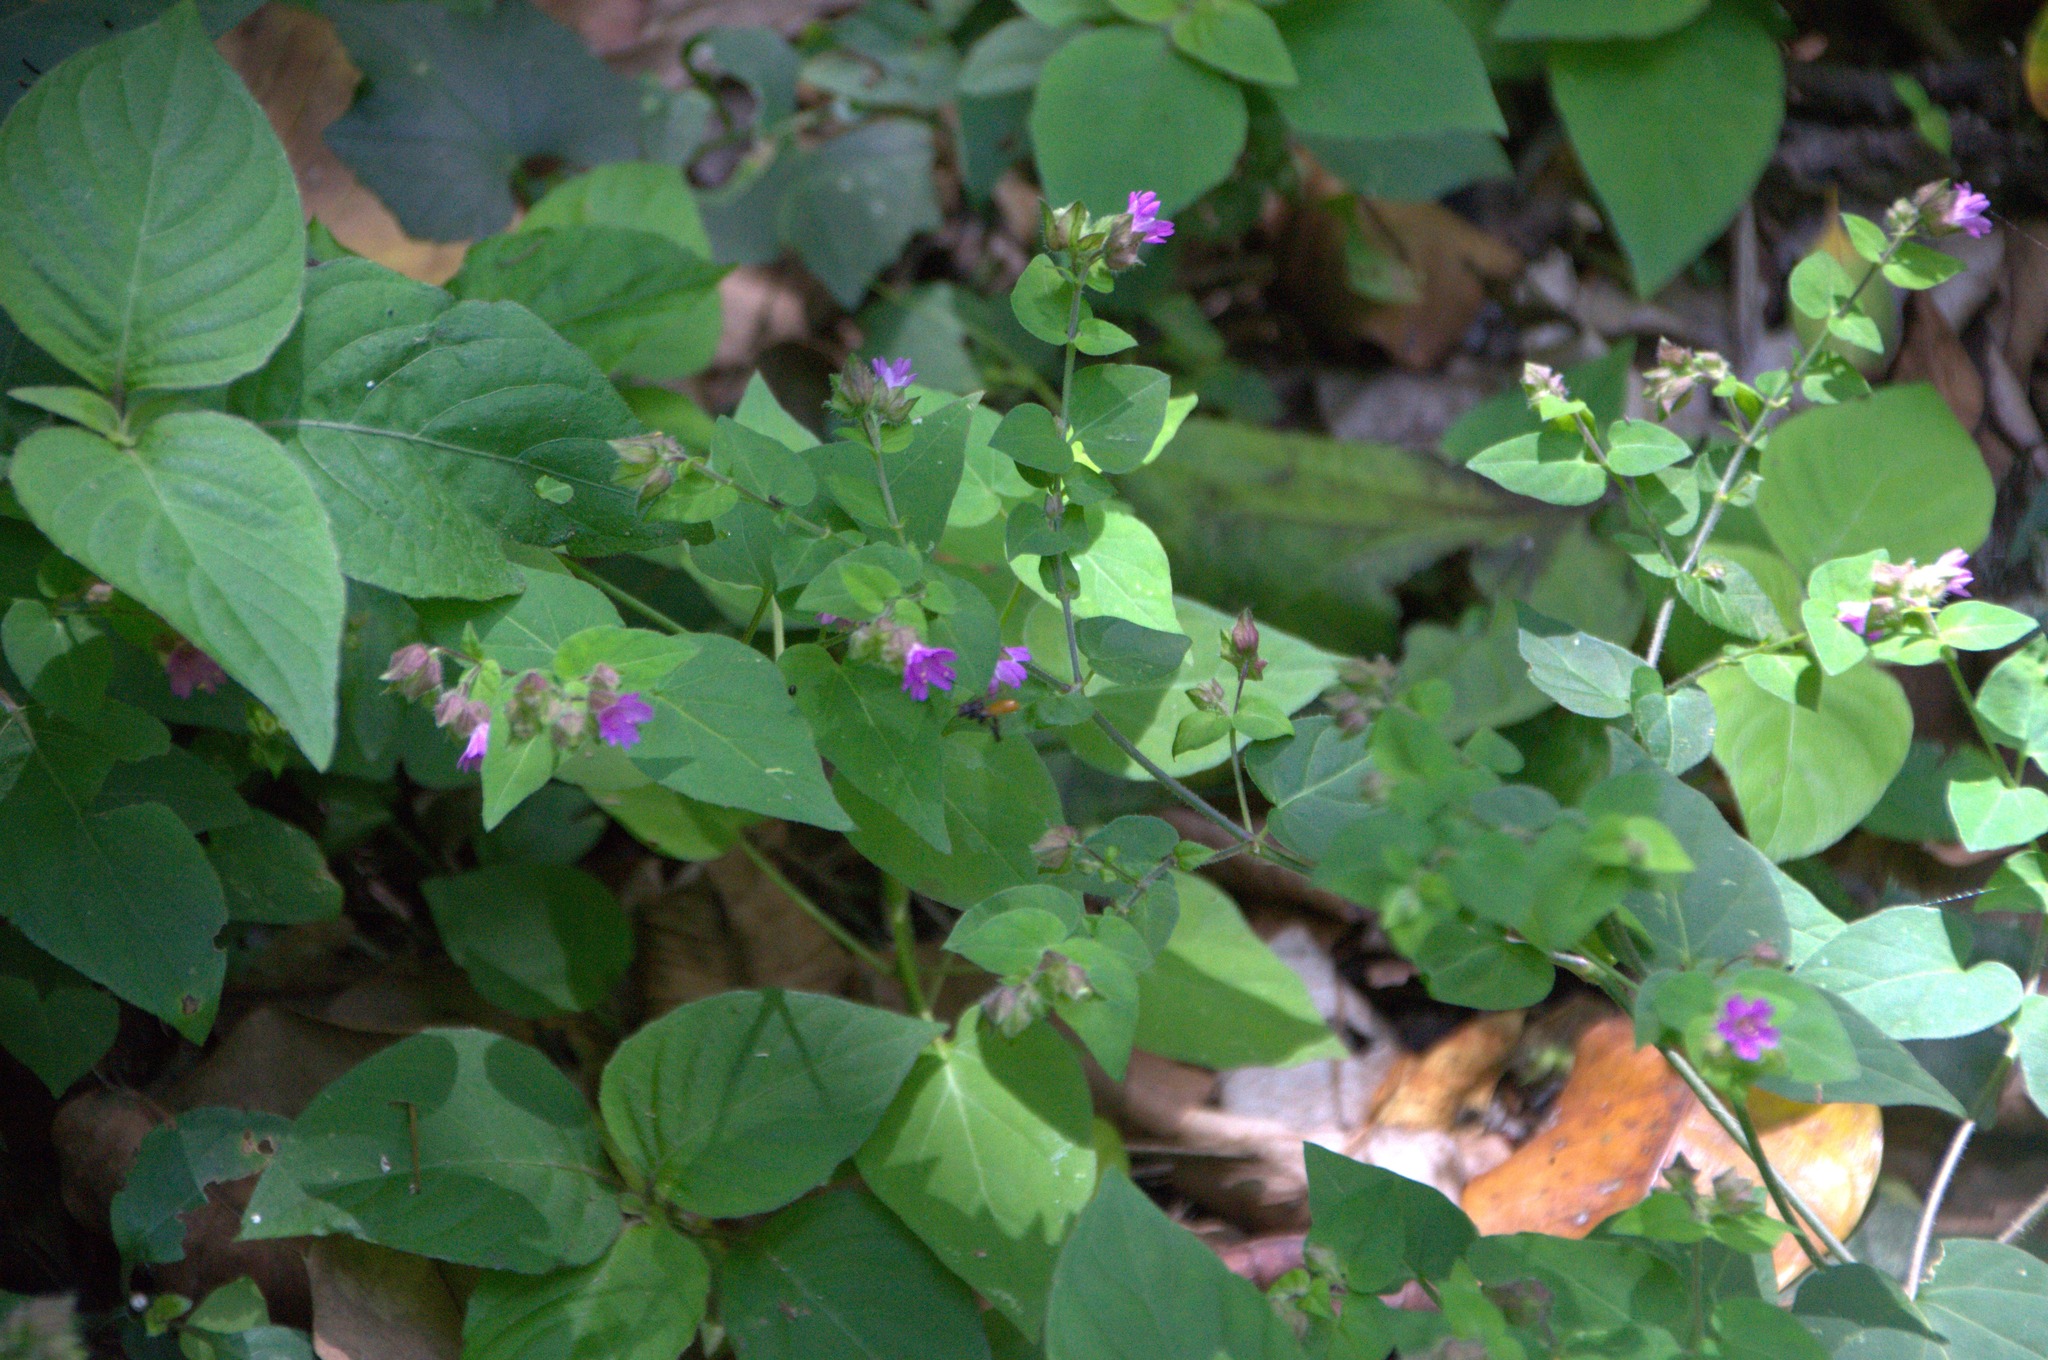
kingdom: Plantae
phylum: Tracheophyta
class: Magnoliopsida
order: Caryophyllales
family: Nyctaginaceae
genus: Mirabilis
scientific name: Mirabilis violacea
